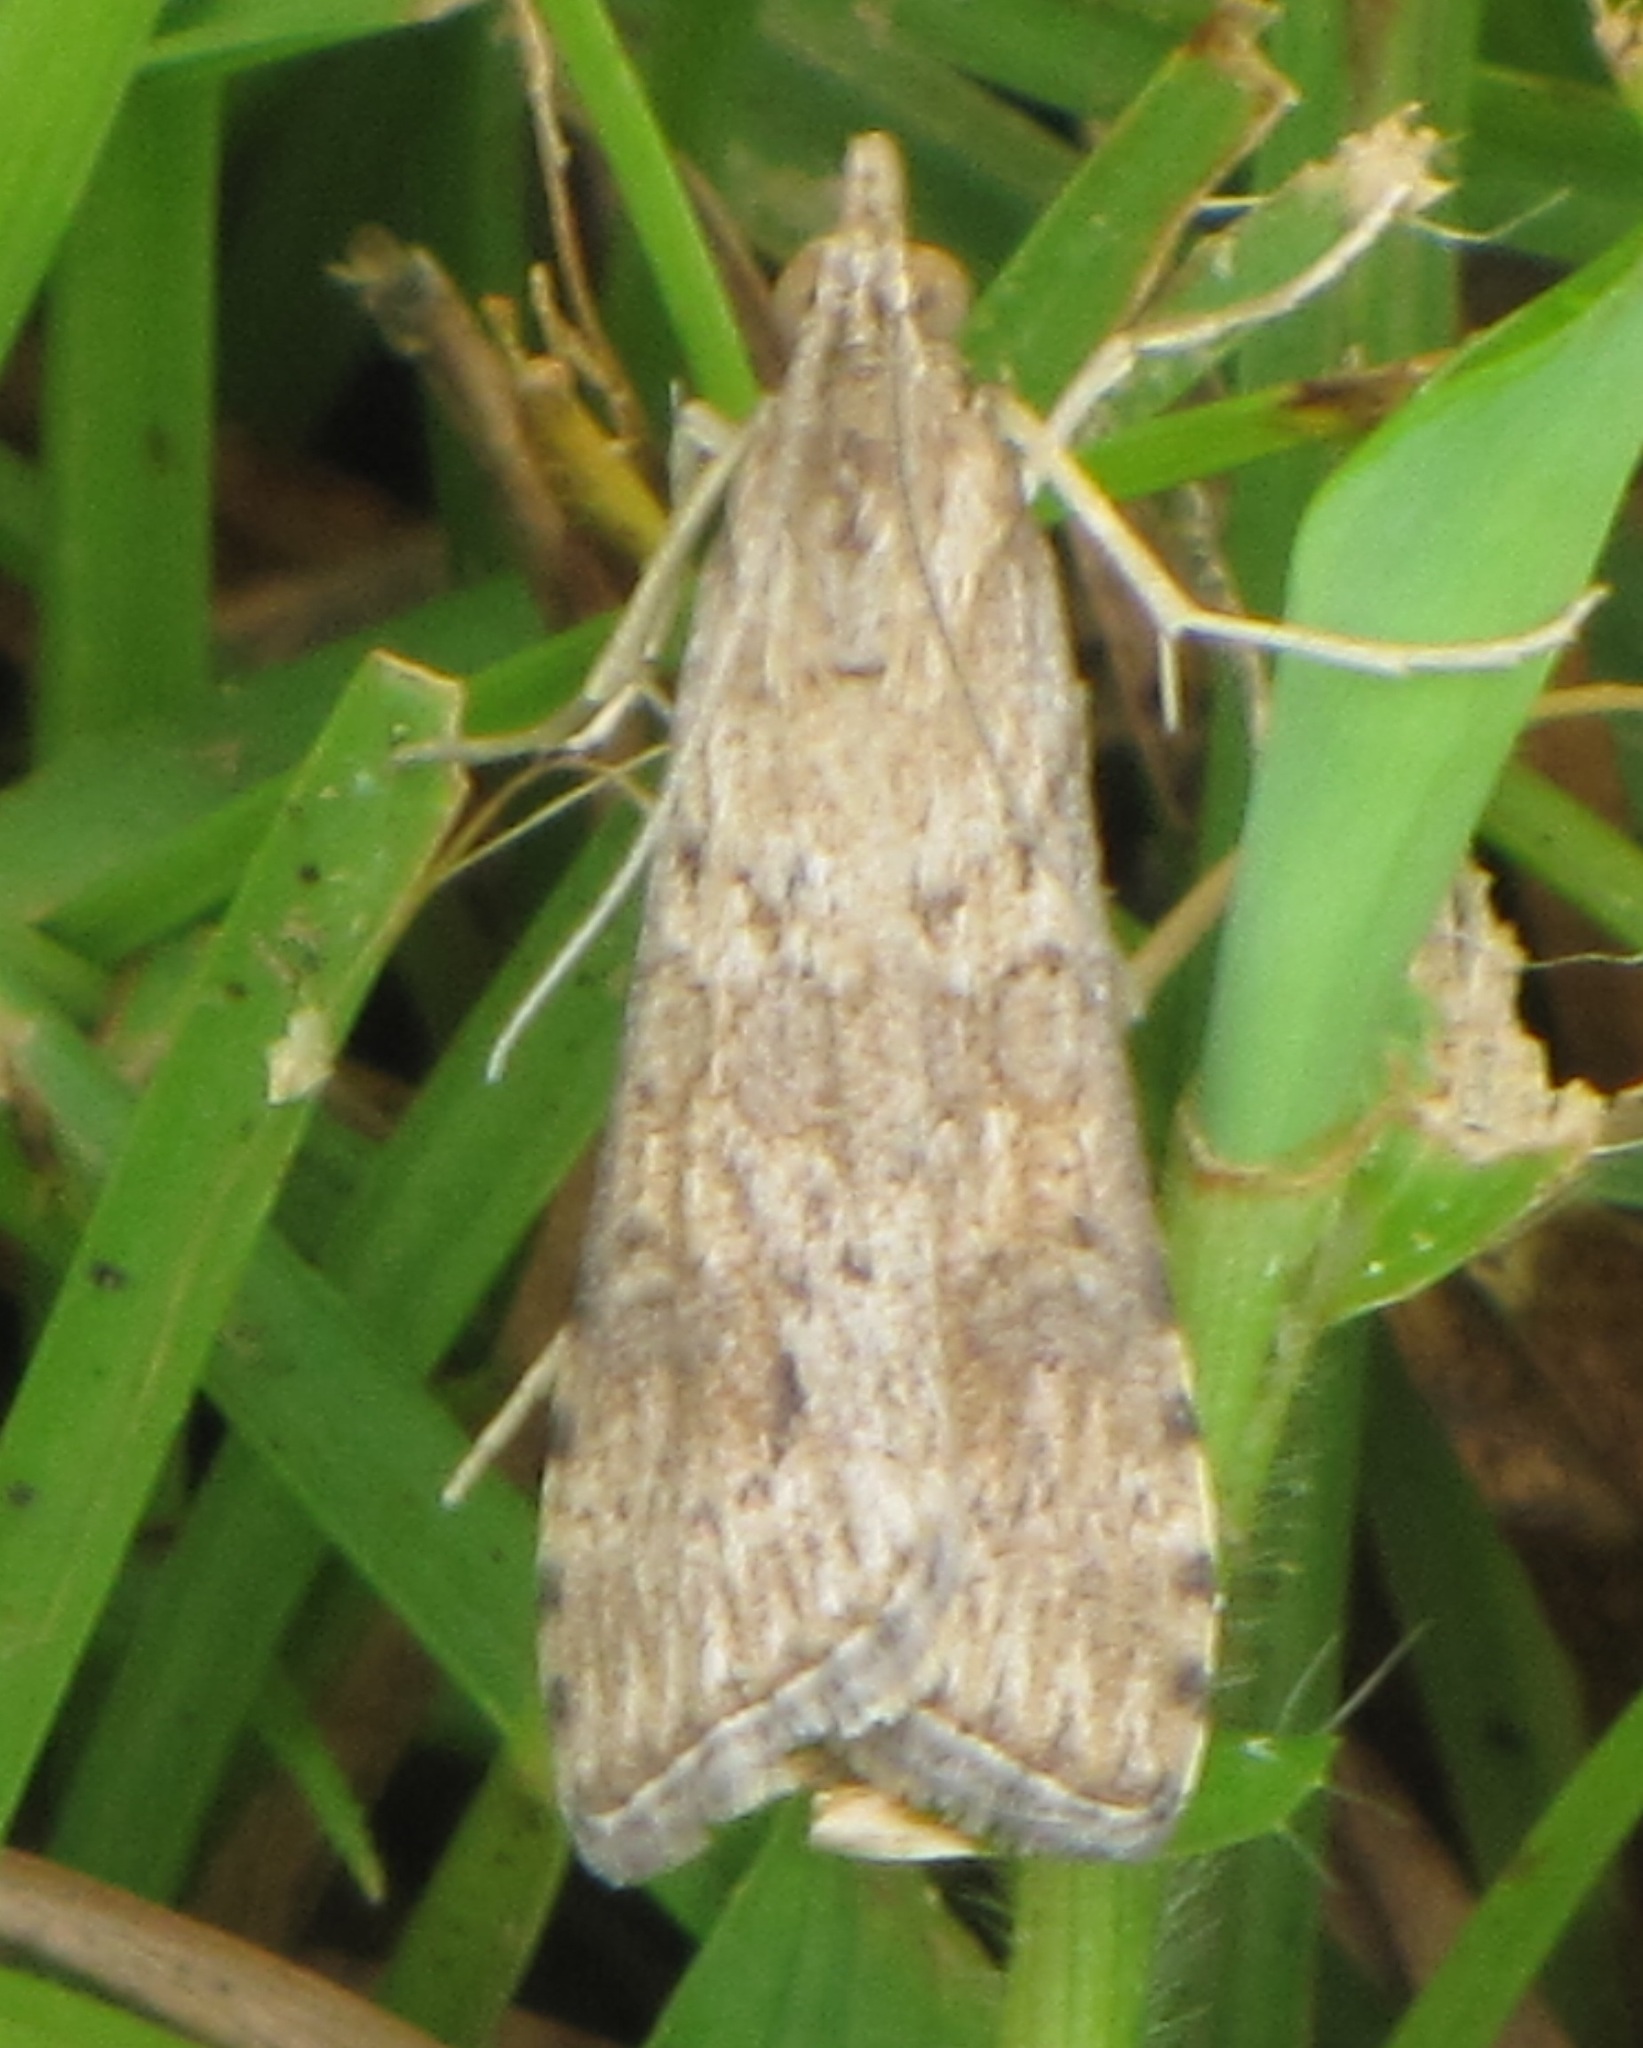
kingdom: Animalia
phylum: Arthropoda
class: Insecta
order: Lepidoptera
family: Crambidae
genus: Nomophila
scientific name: Nomophila nearctica
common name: American rush veneer
